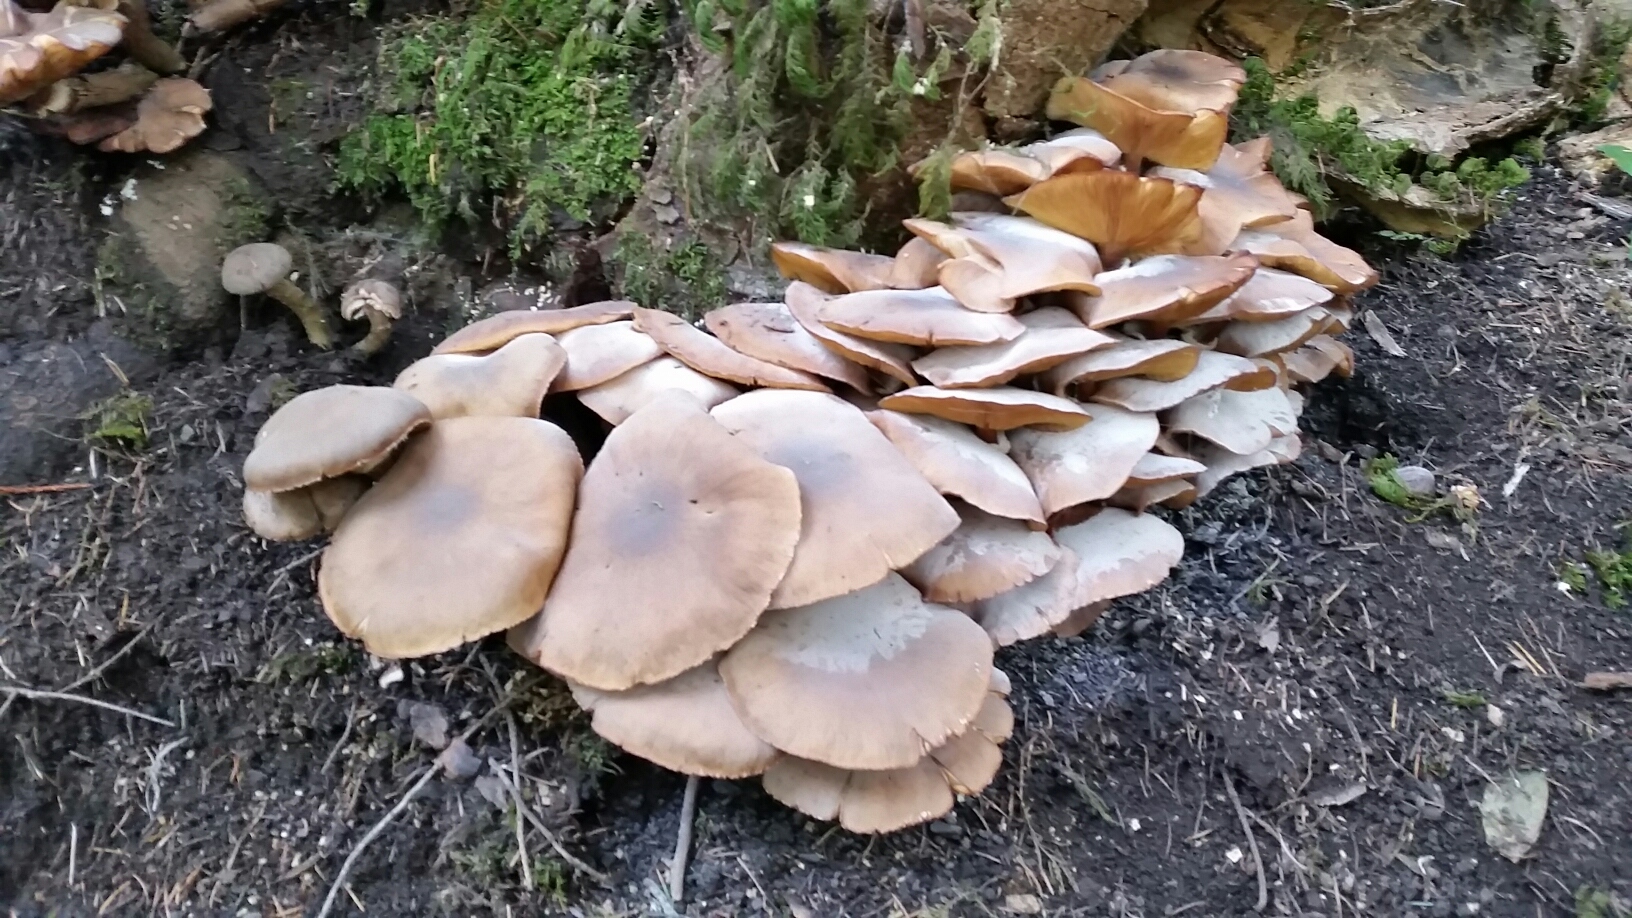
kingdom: Fungi
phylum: Basidiomycota
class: Agaricomycetes
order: Agaricales
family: Physalacriaceae
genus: Armillaria
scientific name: Armillaria mellea
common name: Honey fungus
